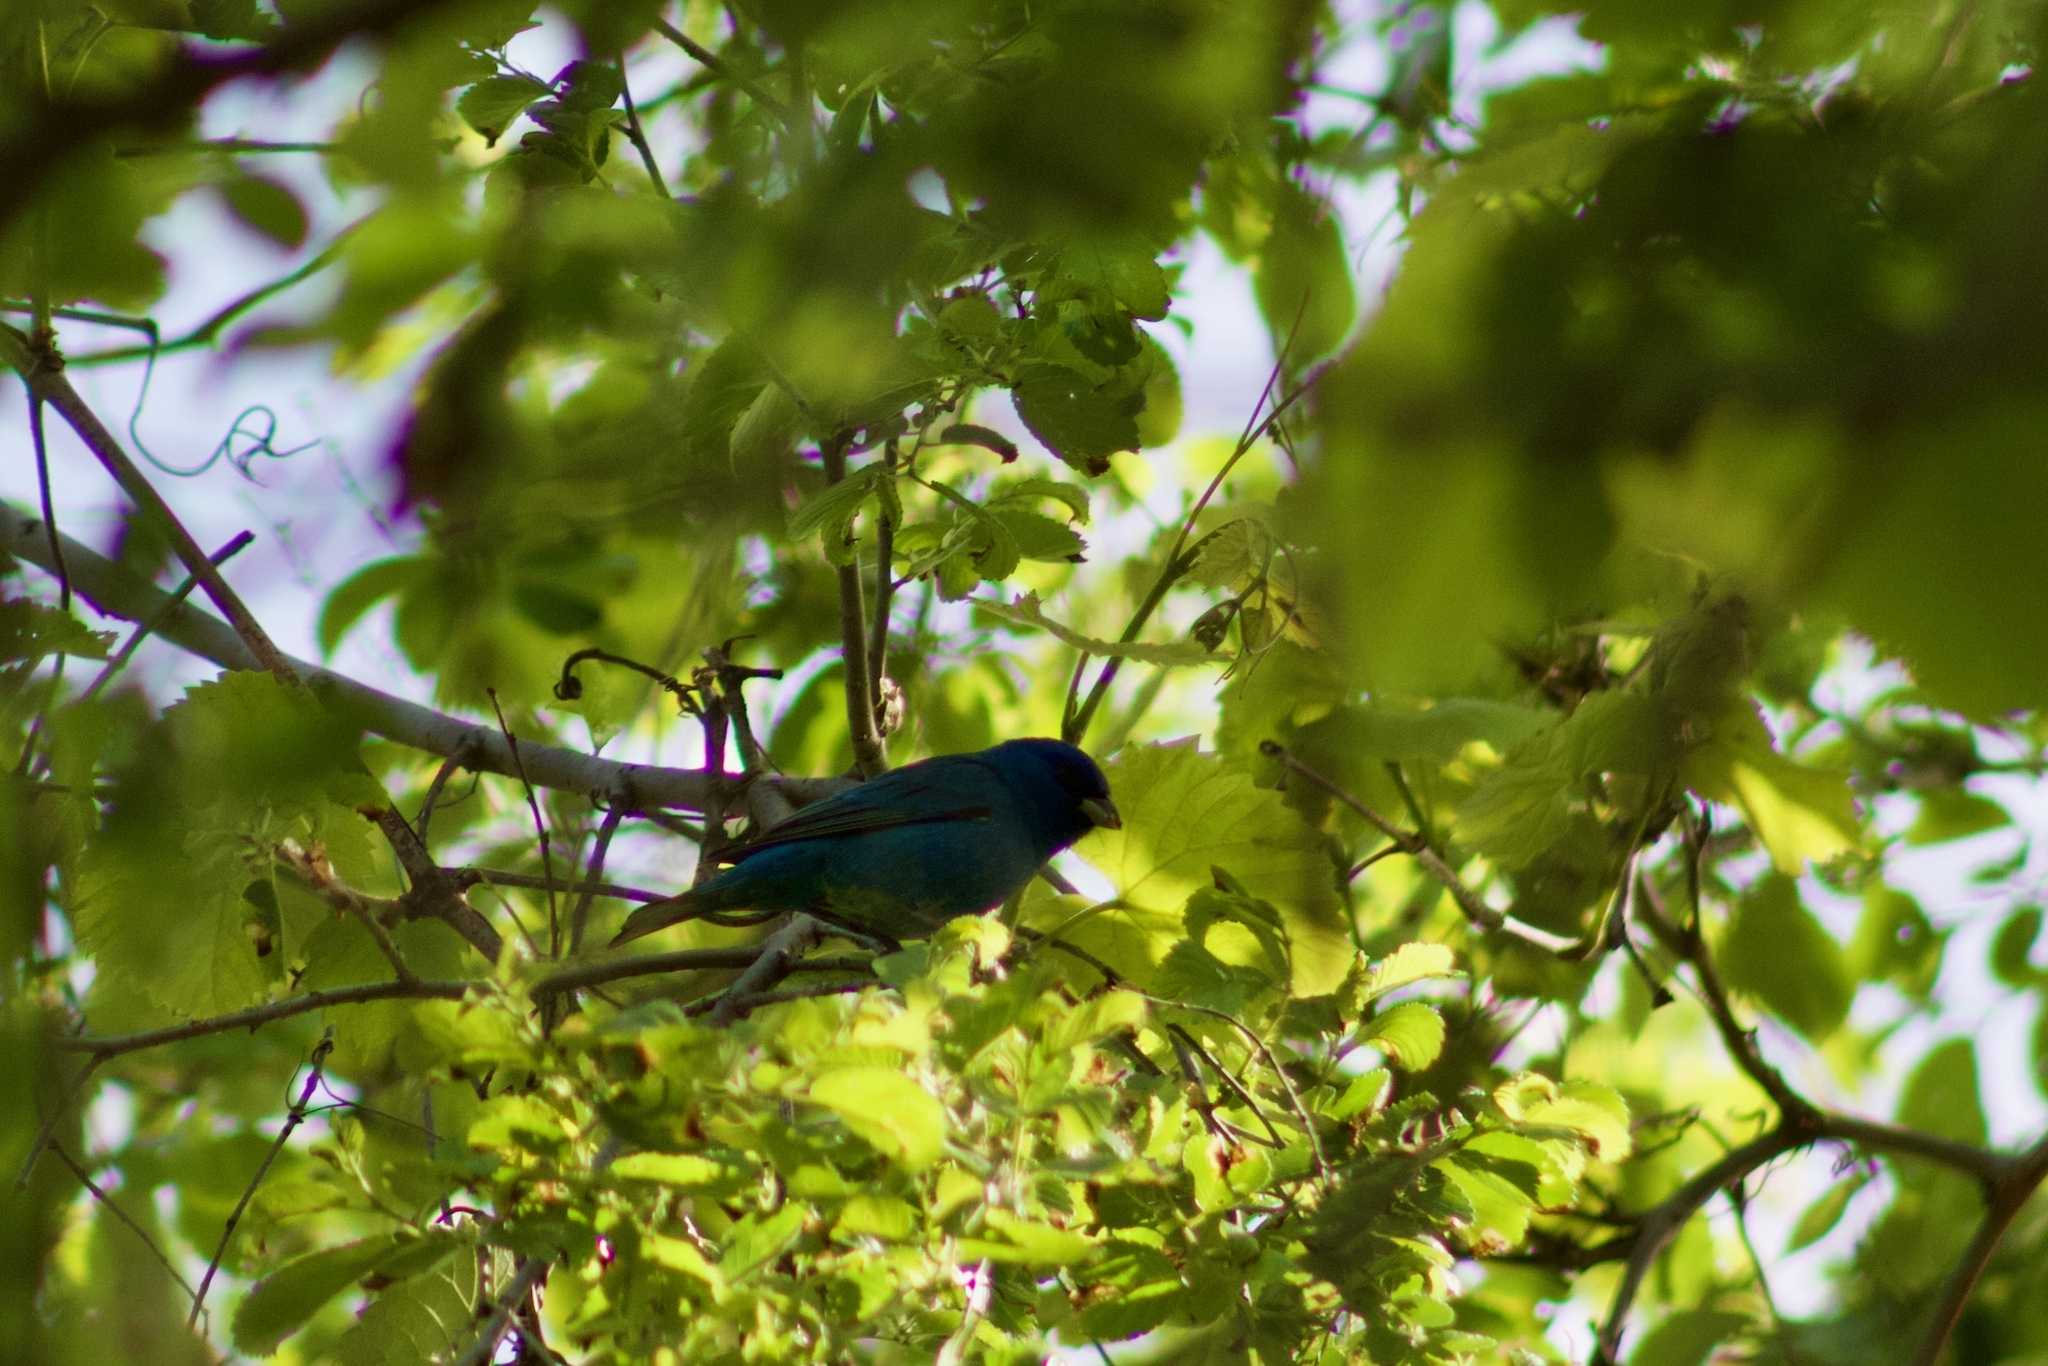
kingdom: Animalia
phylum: Chordata
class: Aves
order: Passeriformes
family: Cardinalidae
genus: Passerina
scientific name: Passerina cyanea
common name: Indigo bunting
